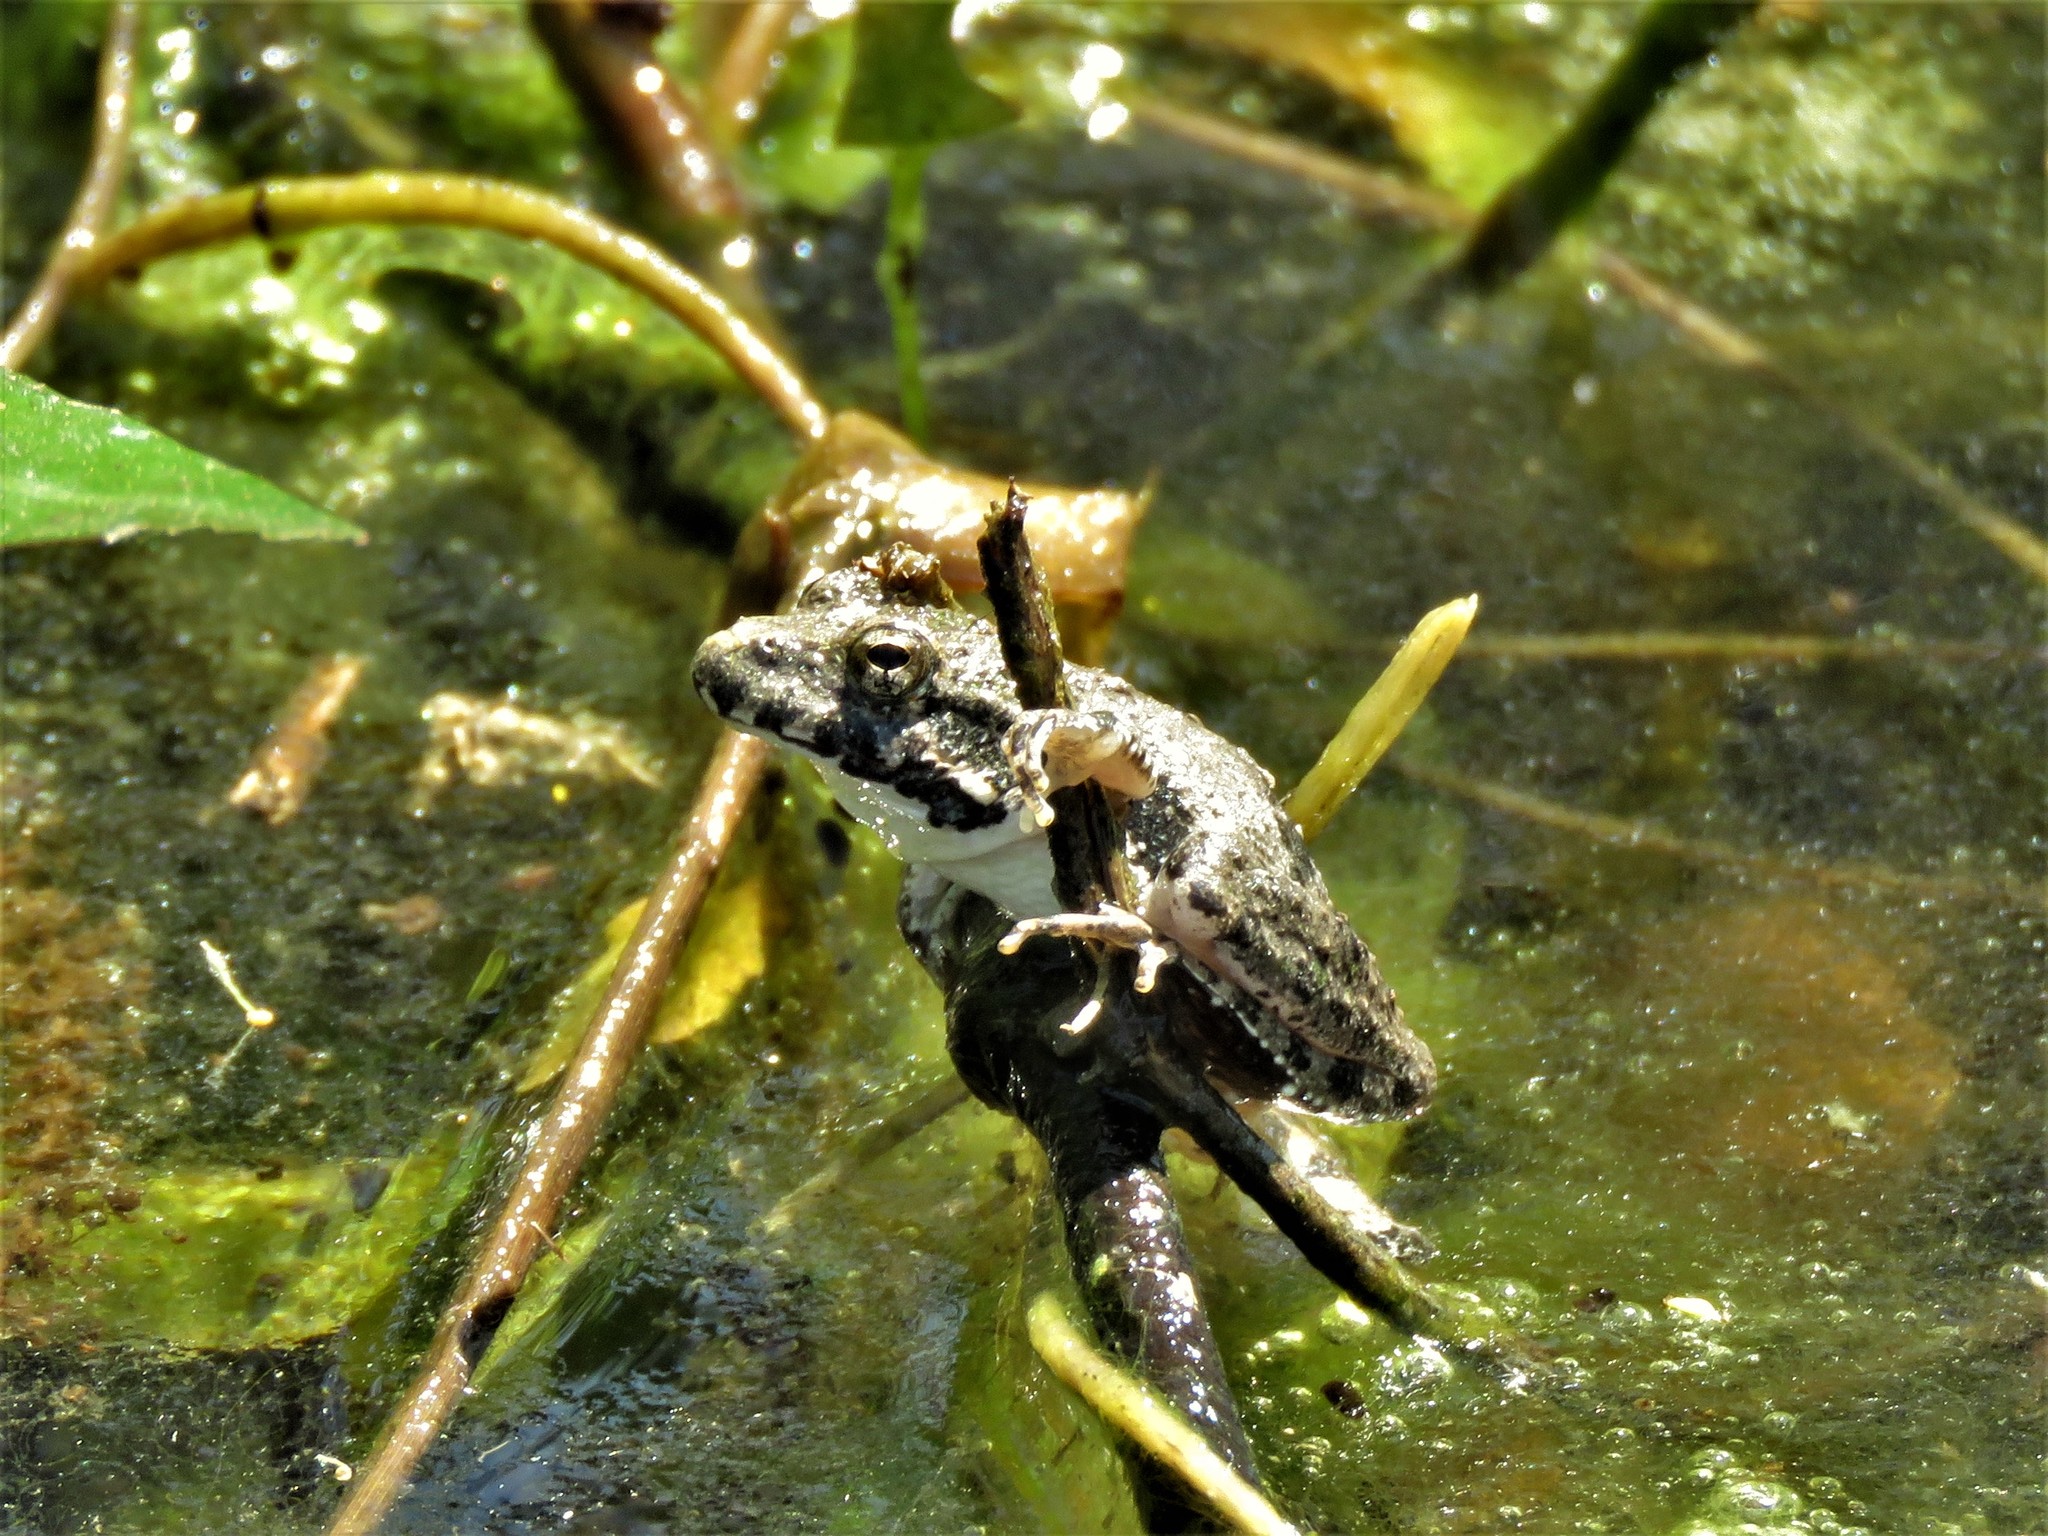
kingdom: Animalia
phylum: Chordata
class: Amphibia
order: Anura
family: Hylidae
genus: Acris
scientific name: Acris blanchardi
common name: Blanchard's cricket frog
